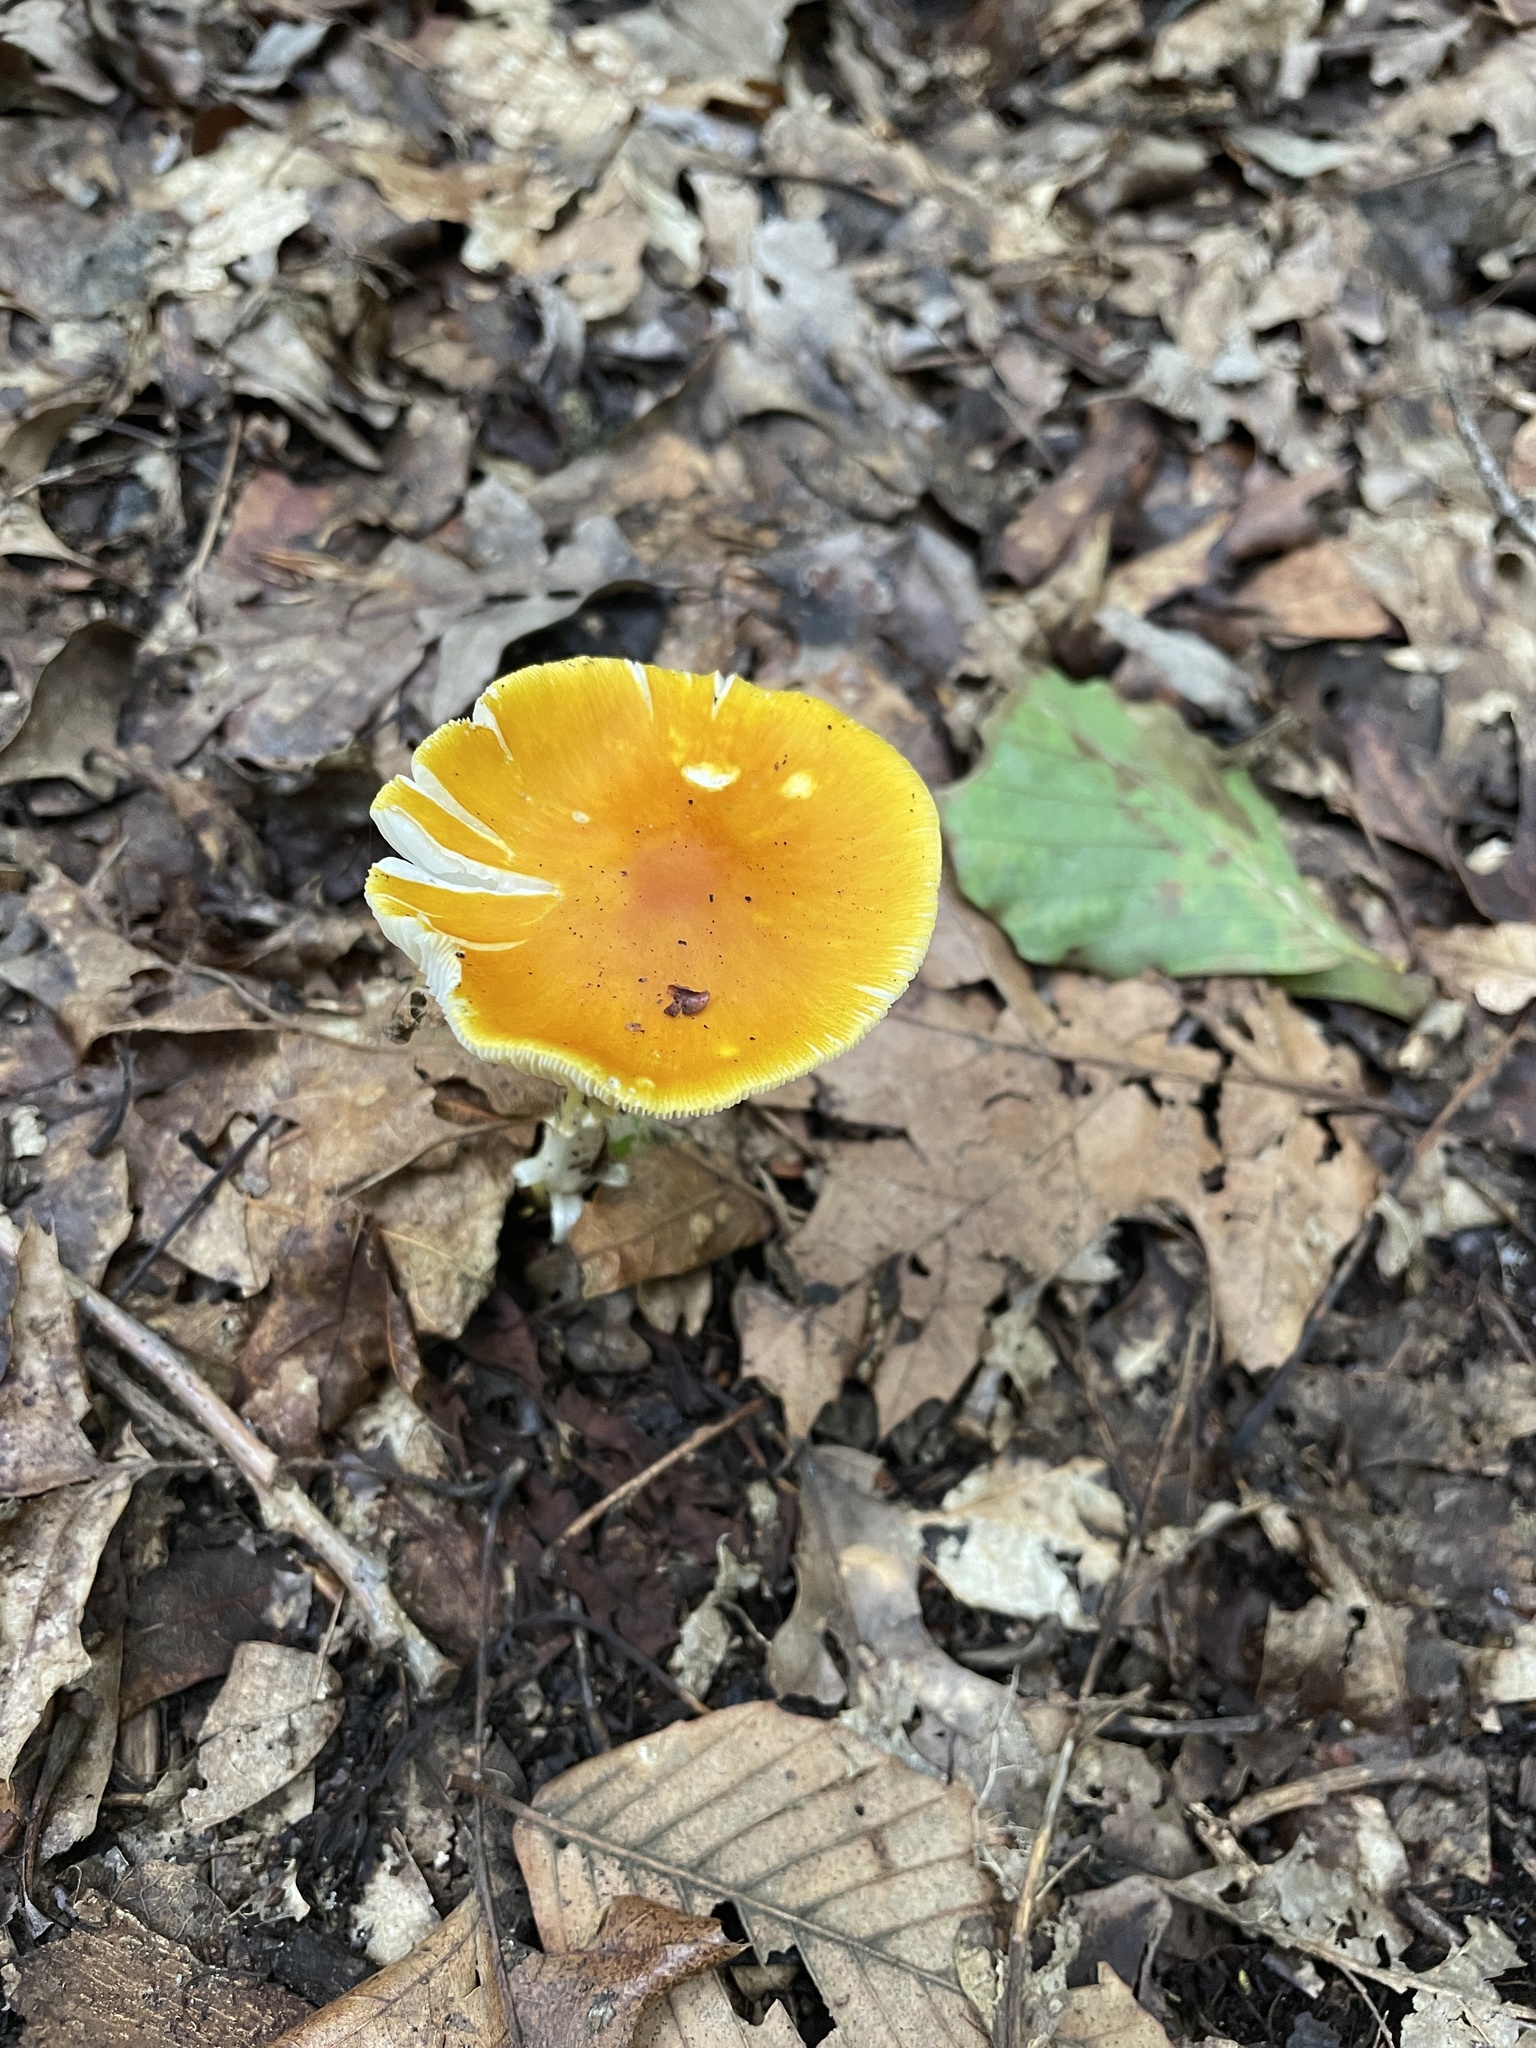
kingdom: Fungi
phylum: Basidiomycota
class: Agaricomycetes
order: Agaricales
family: Amanitaceae
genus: Amanita
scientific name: Amanita flavoconia
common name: Yellow patches
